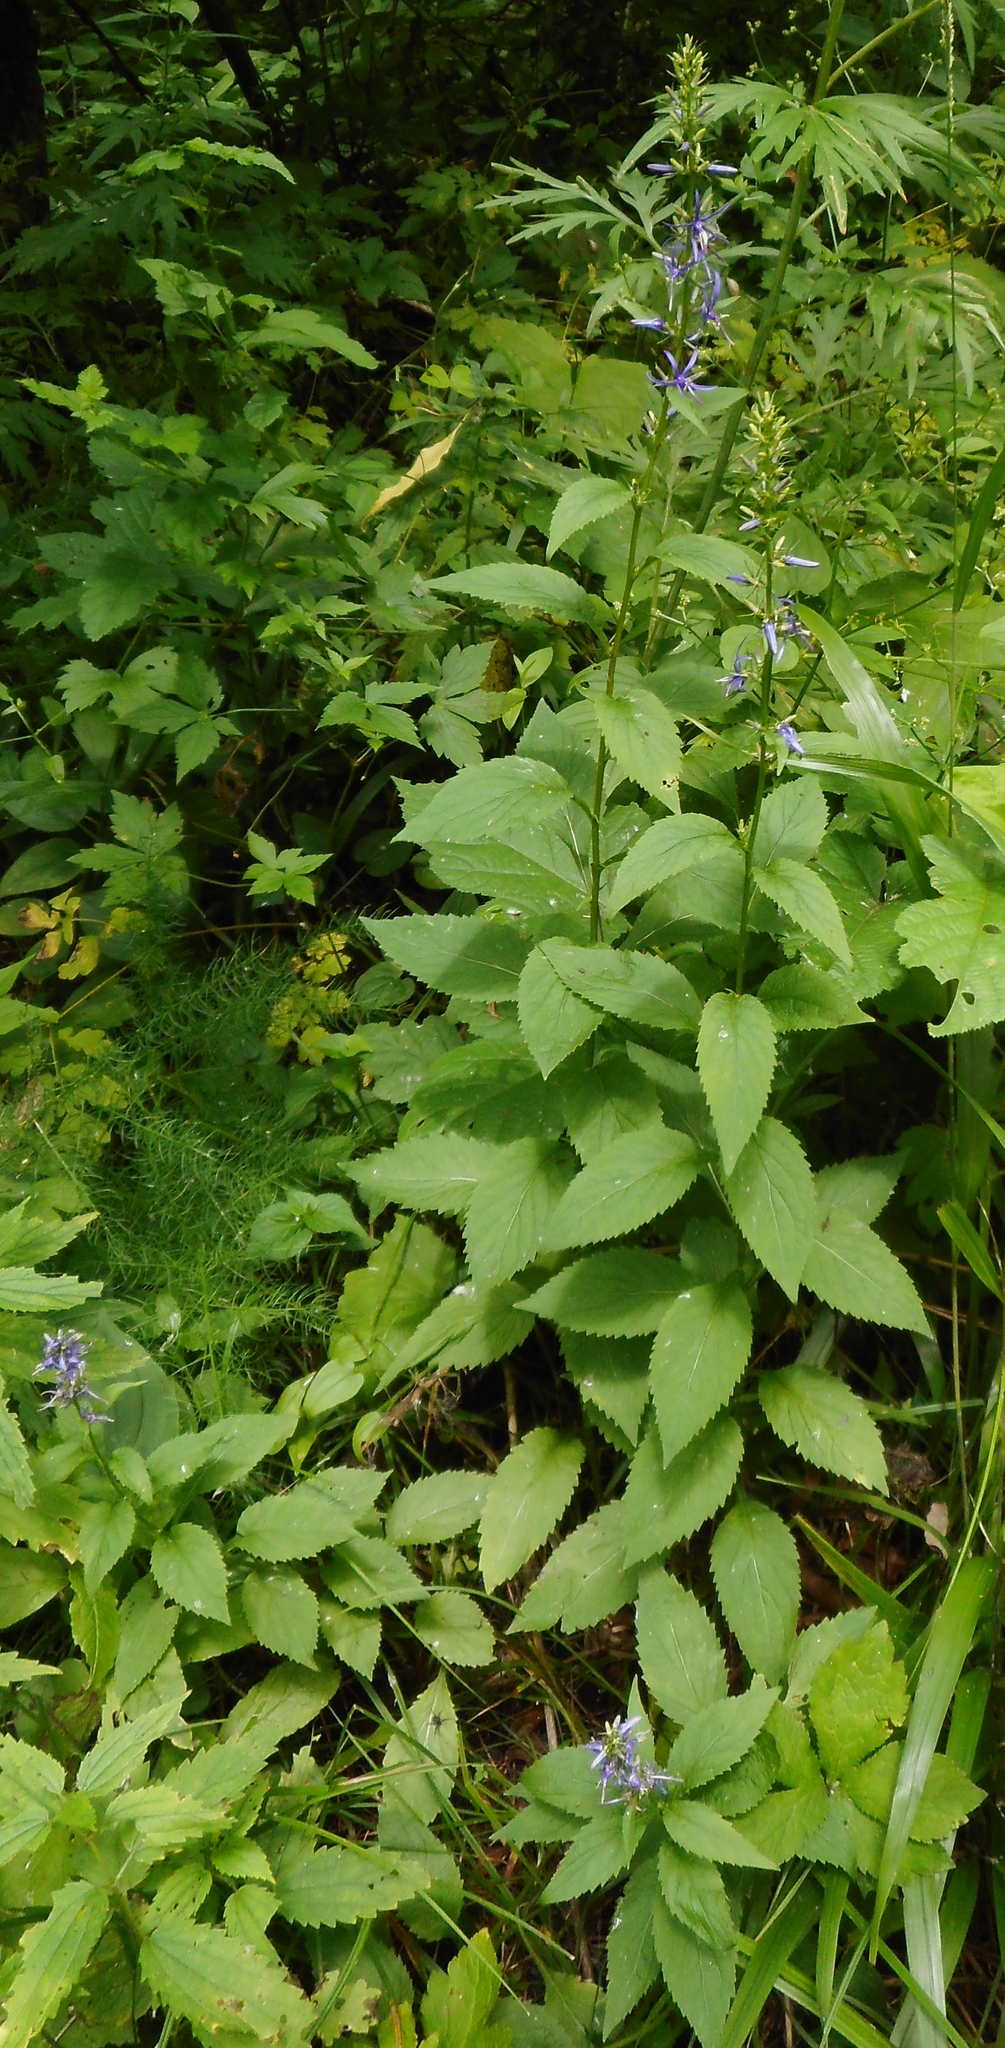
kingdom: Plantae
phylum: Tracheophyta
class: Magnoliopsida
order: Asterales
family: Campanulaceae
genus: Asyneuma
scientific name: Asyneuma japonicum
